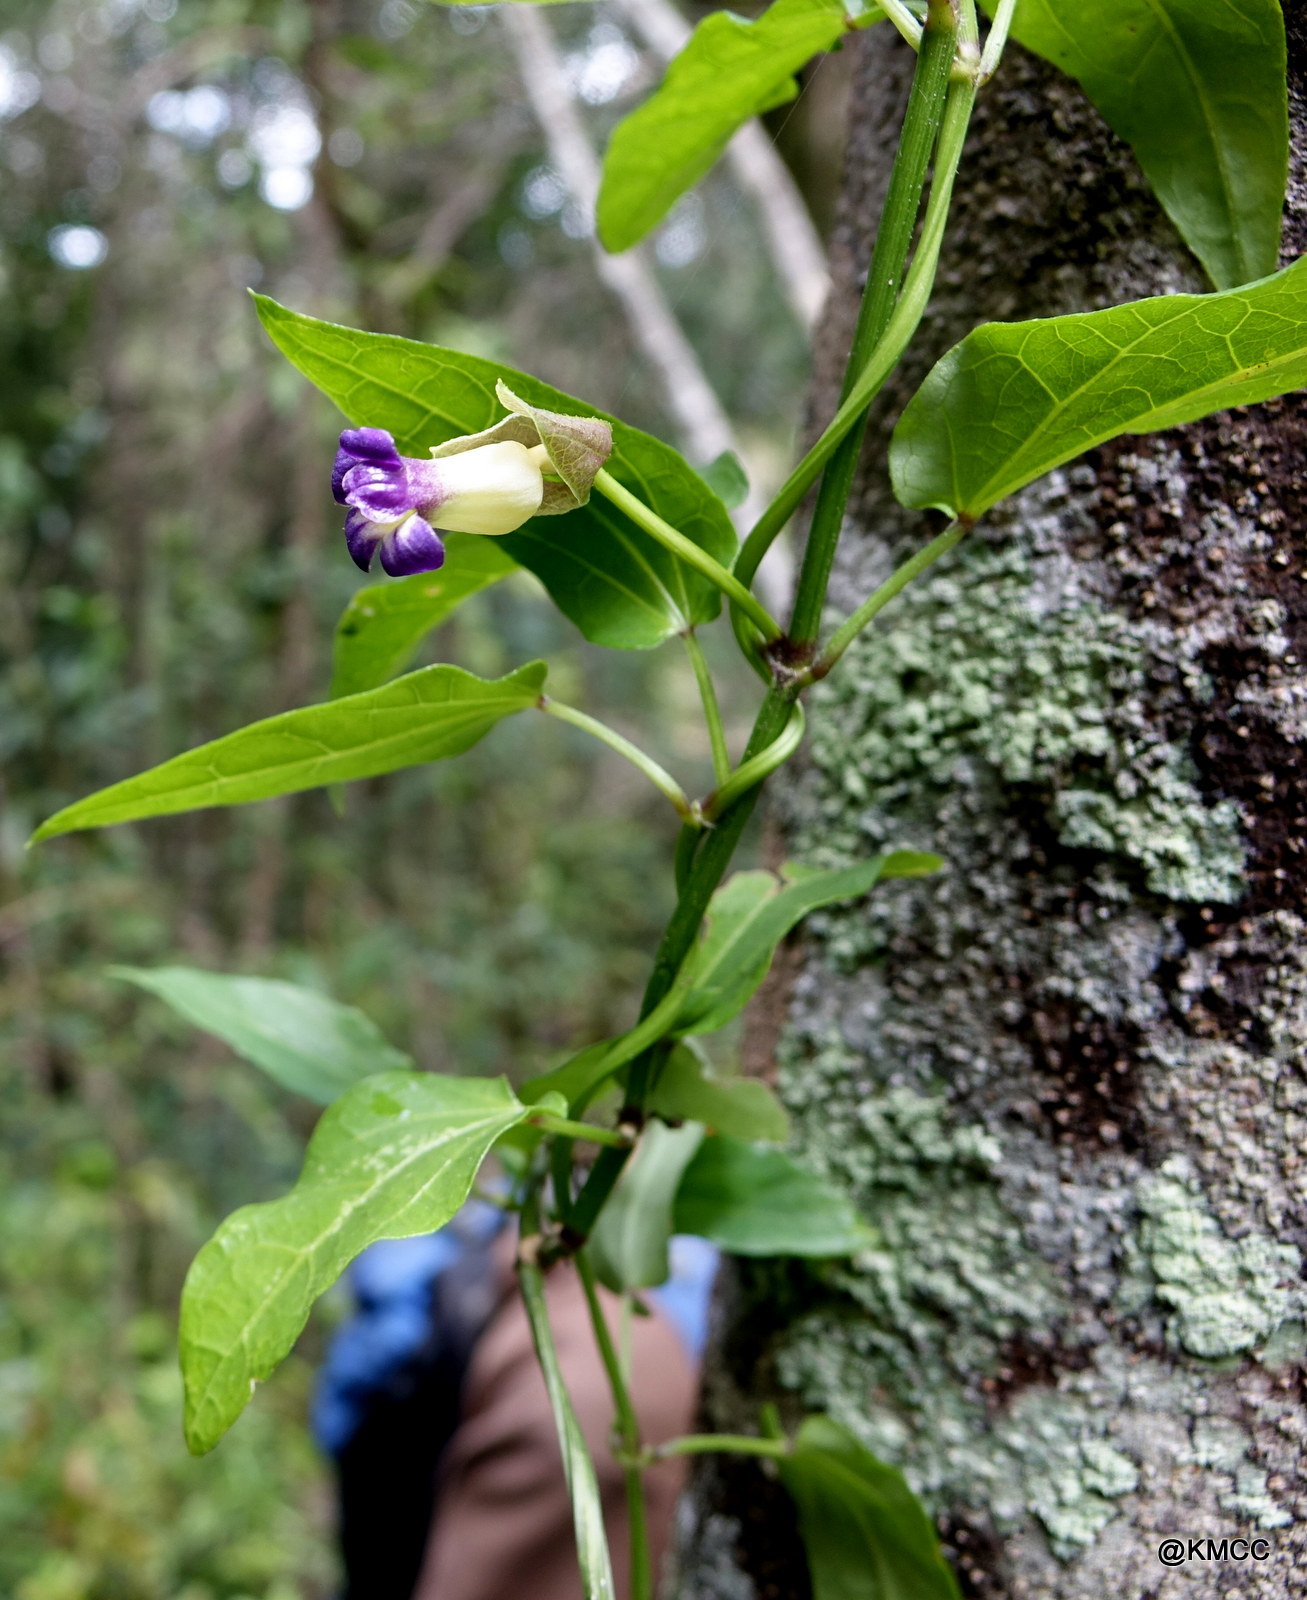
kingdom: Plantae
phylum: Tracheophyta
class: Magnoliopsida
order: Lamiales
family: Acanthaceae
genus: Thunbergia
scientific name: Thunbergia convolvulifolia
